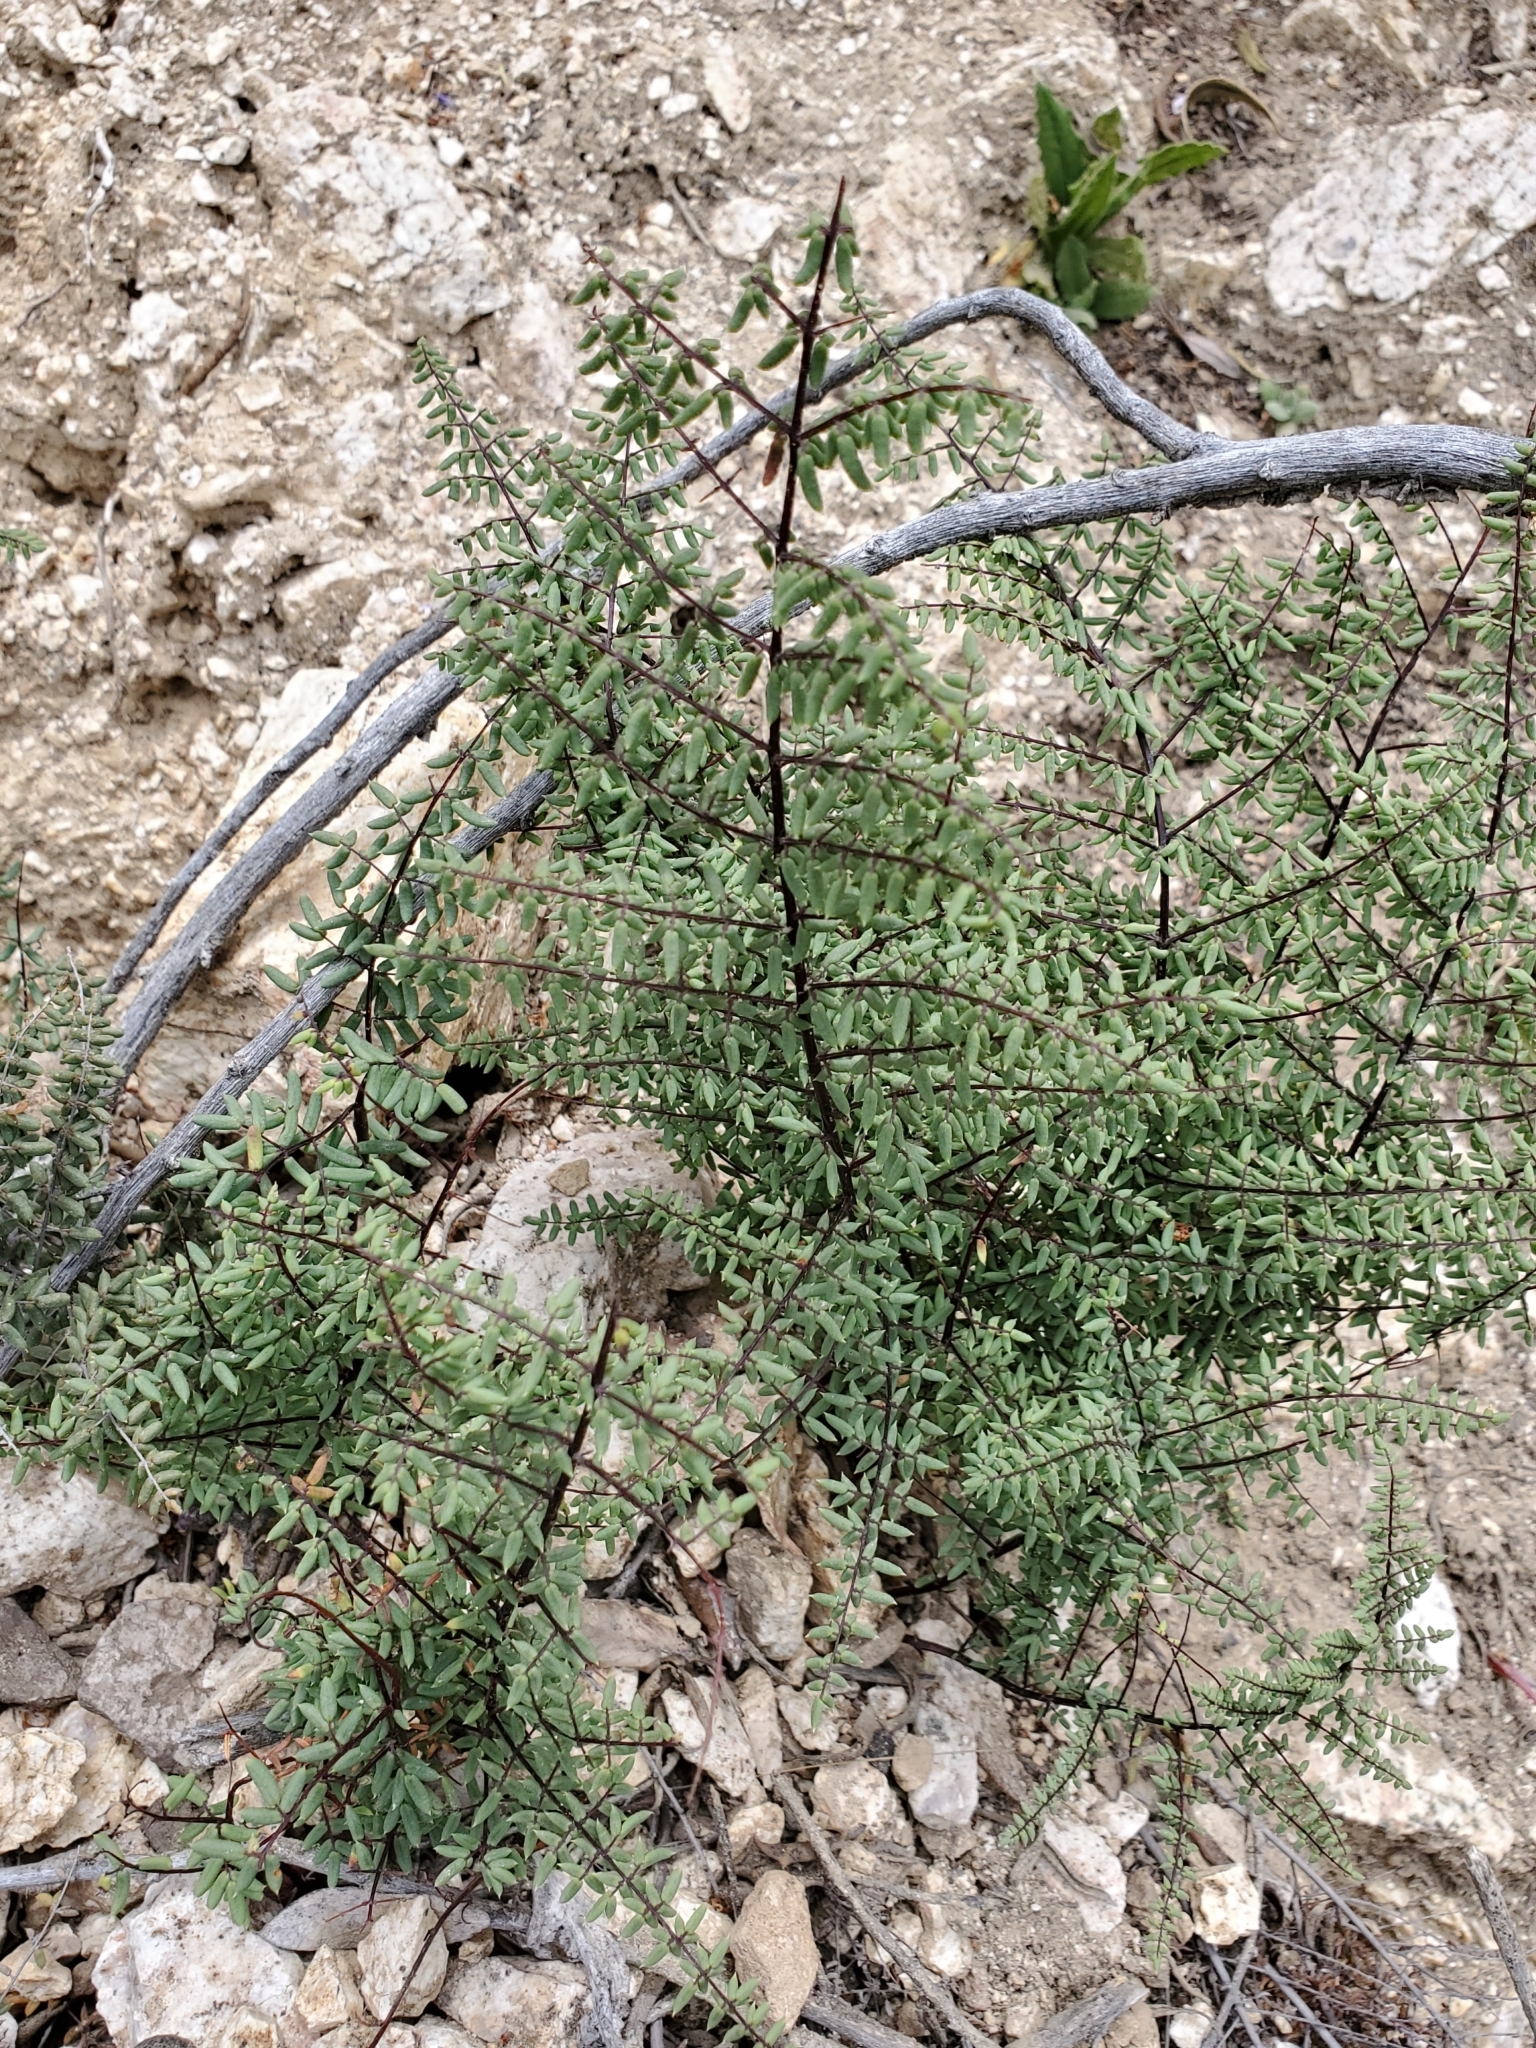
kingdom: Plantae
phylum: Tracheophyta
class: Polypodiopsida
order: Polypodiales
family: Pteridaceae
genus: Pellaea
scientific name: Pellaea mucronata
